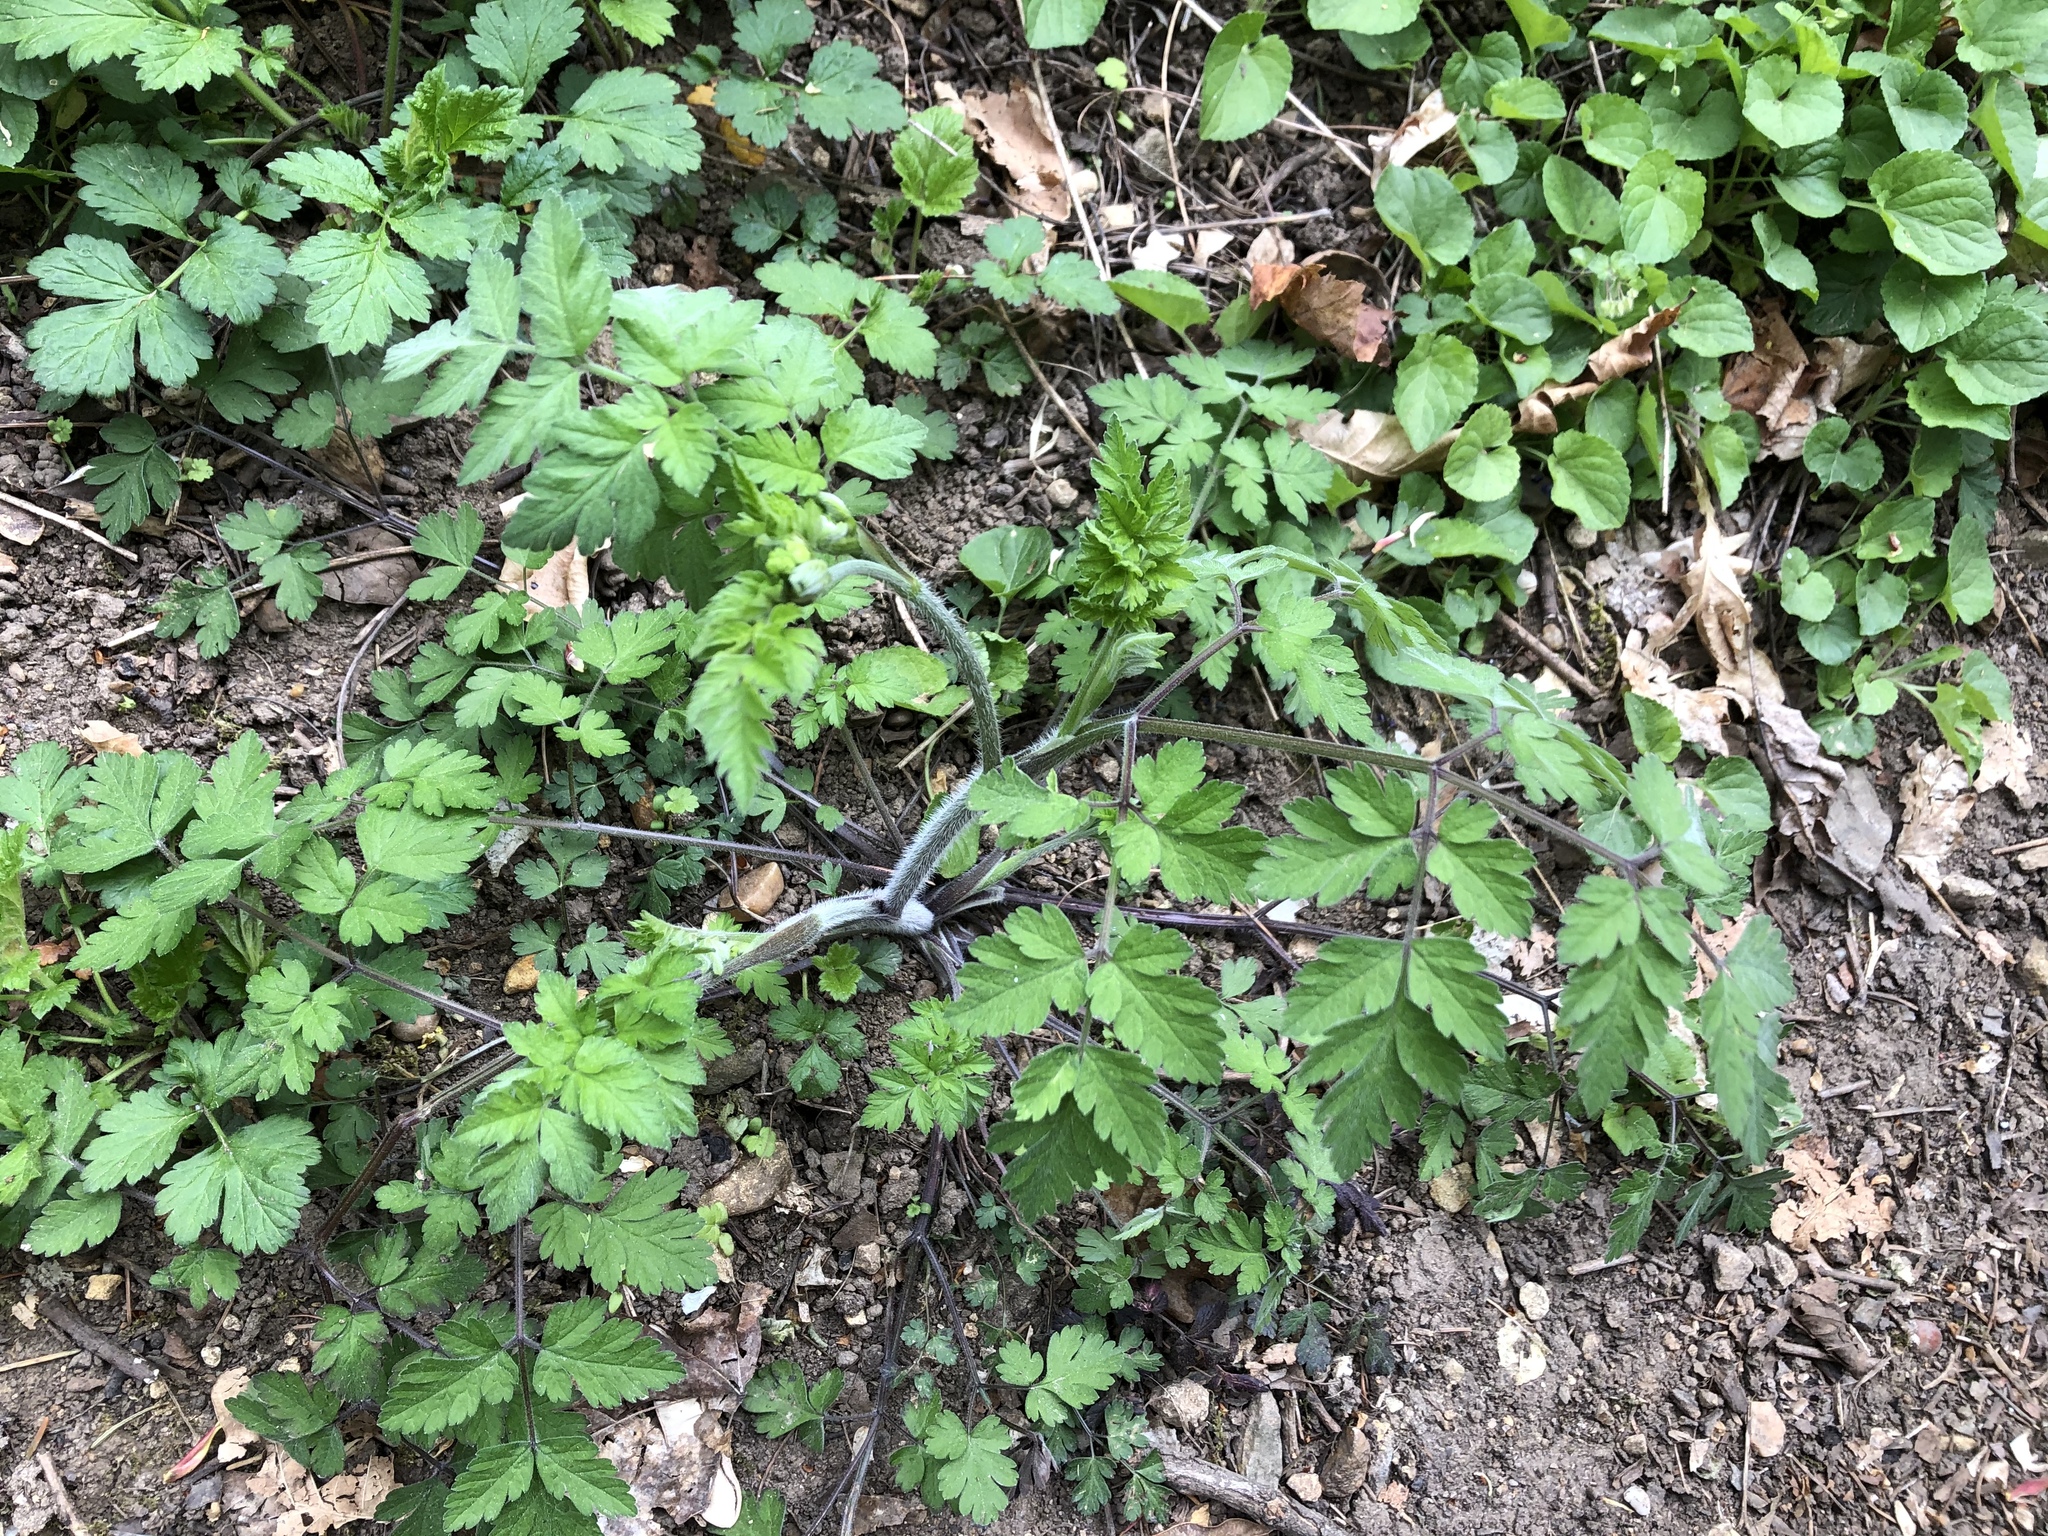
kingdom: Plantae
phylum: Tracheophyta
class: Magnoliopsida
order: Apiales
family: Apiaceae
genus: Chaerophyllum
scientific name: Chaerophyllum temulum
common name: Rough chervil
